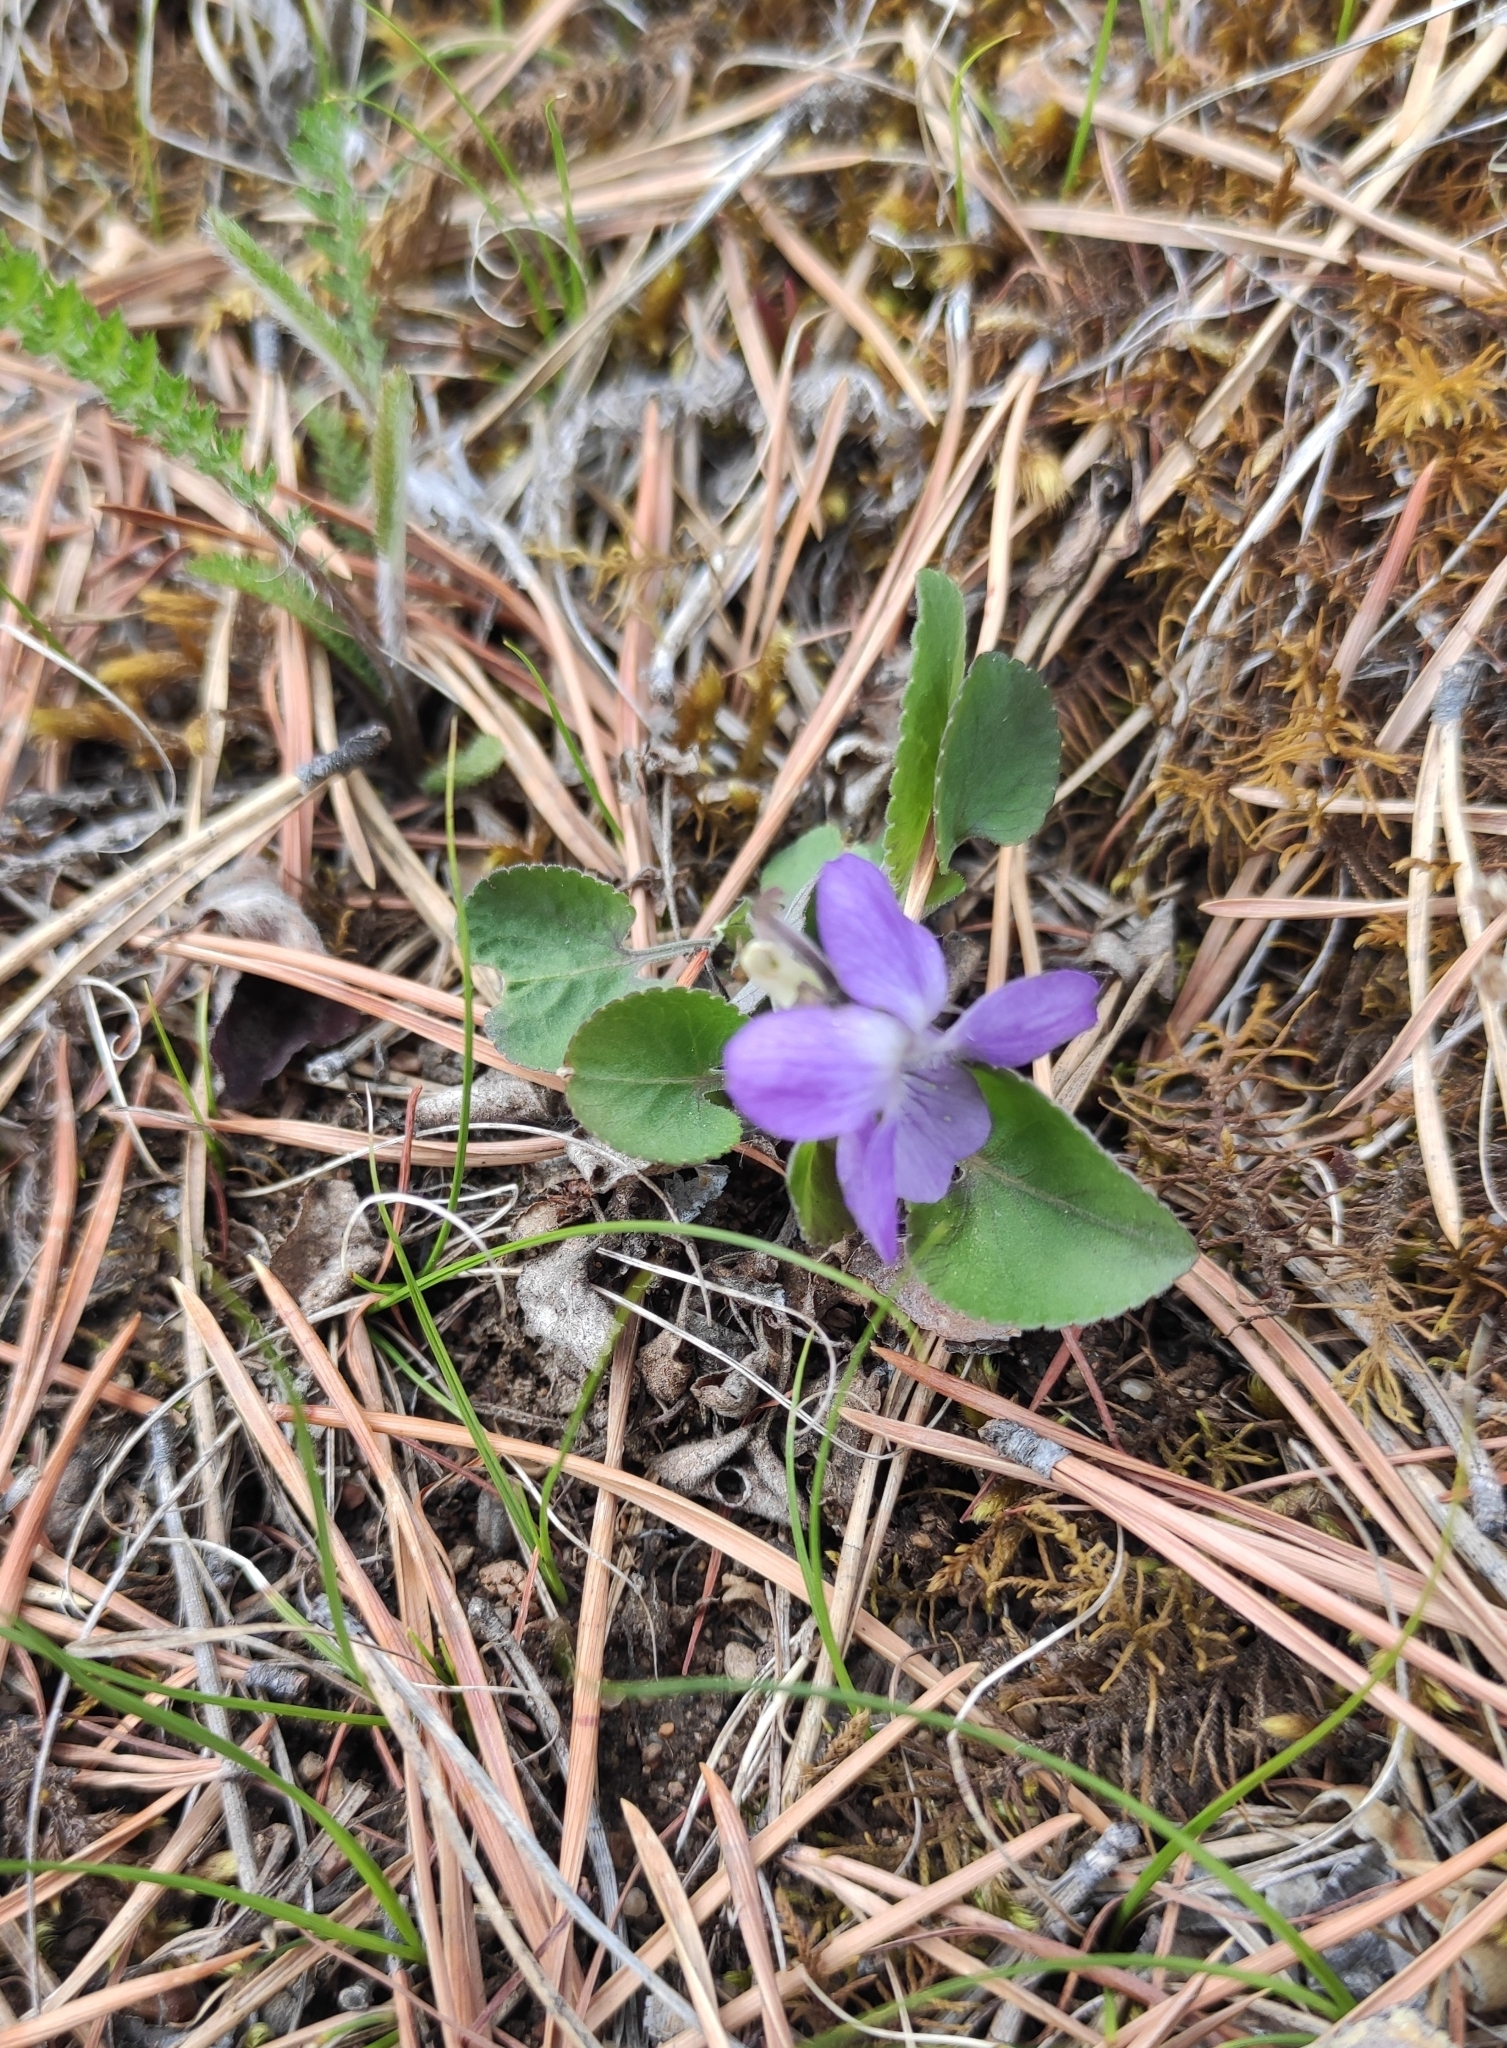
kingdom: Plantae
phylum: Tracheophyta
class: Magnoliopsida
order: Malpighiales
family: Violaceae
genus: Viola
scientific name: Viola rupestris
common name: Teesdale violet
